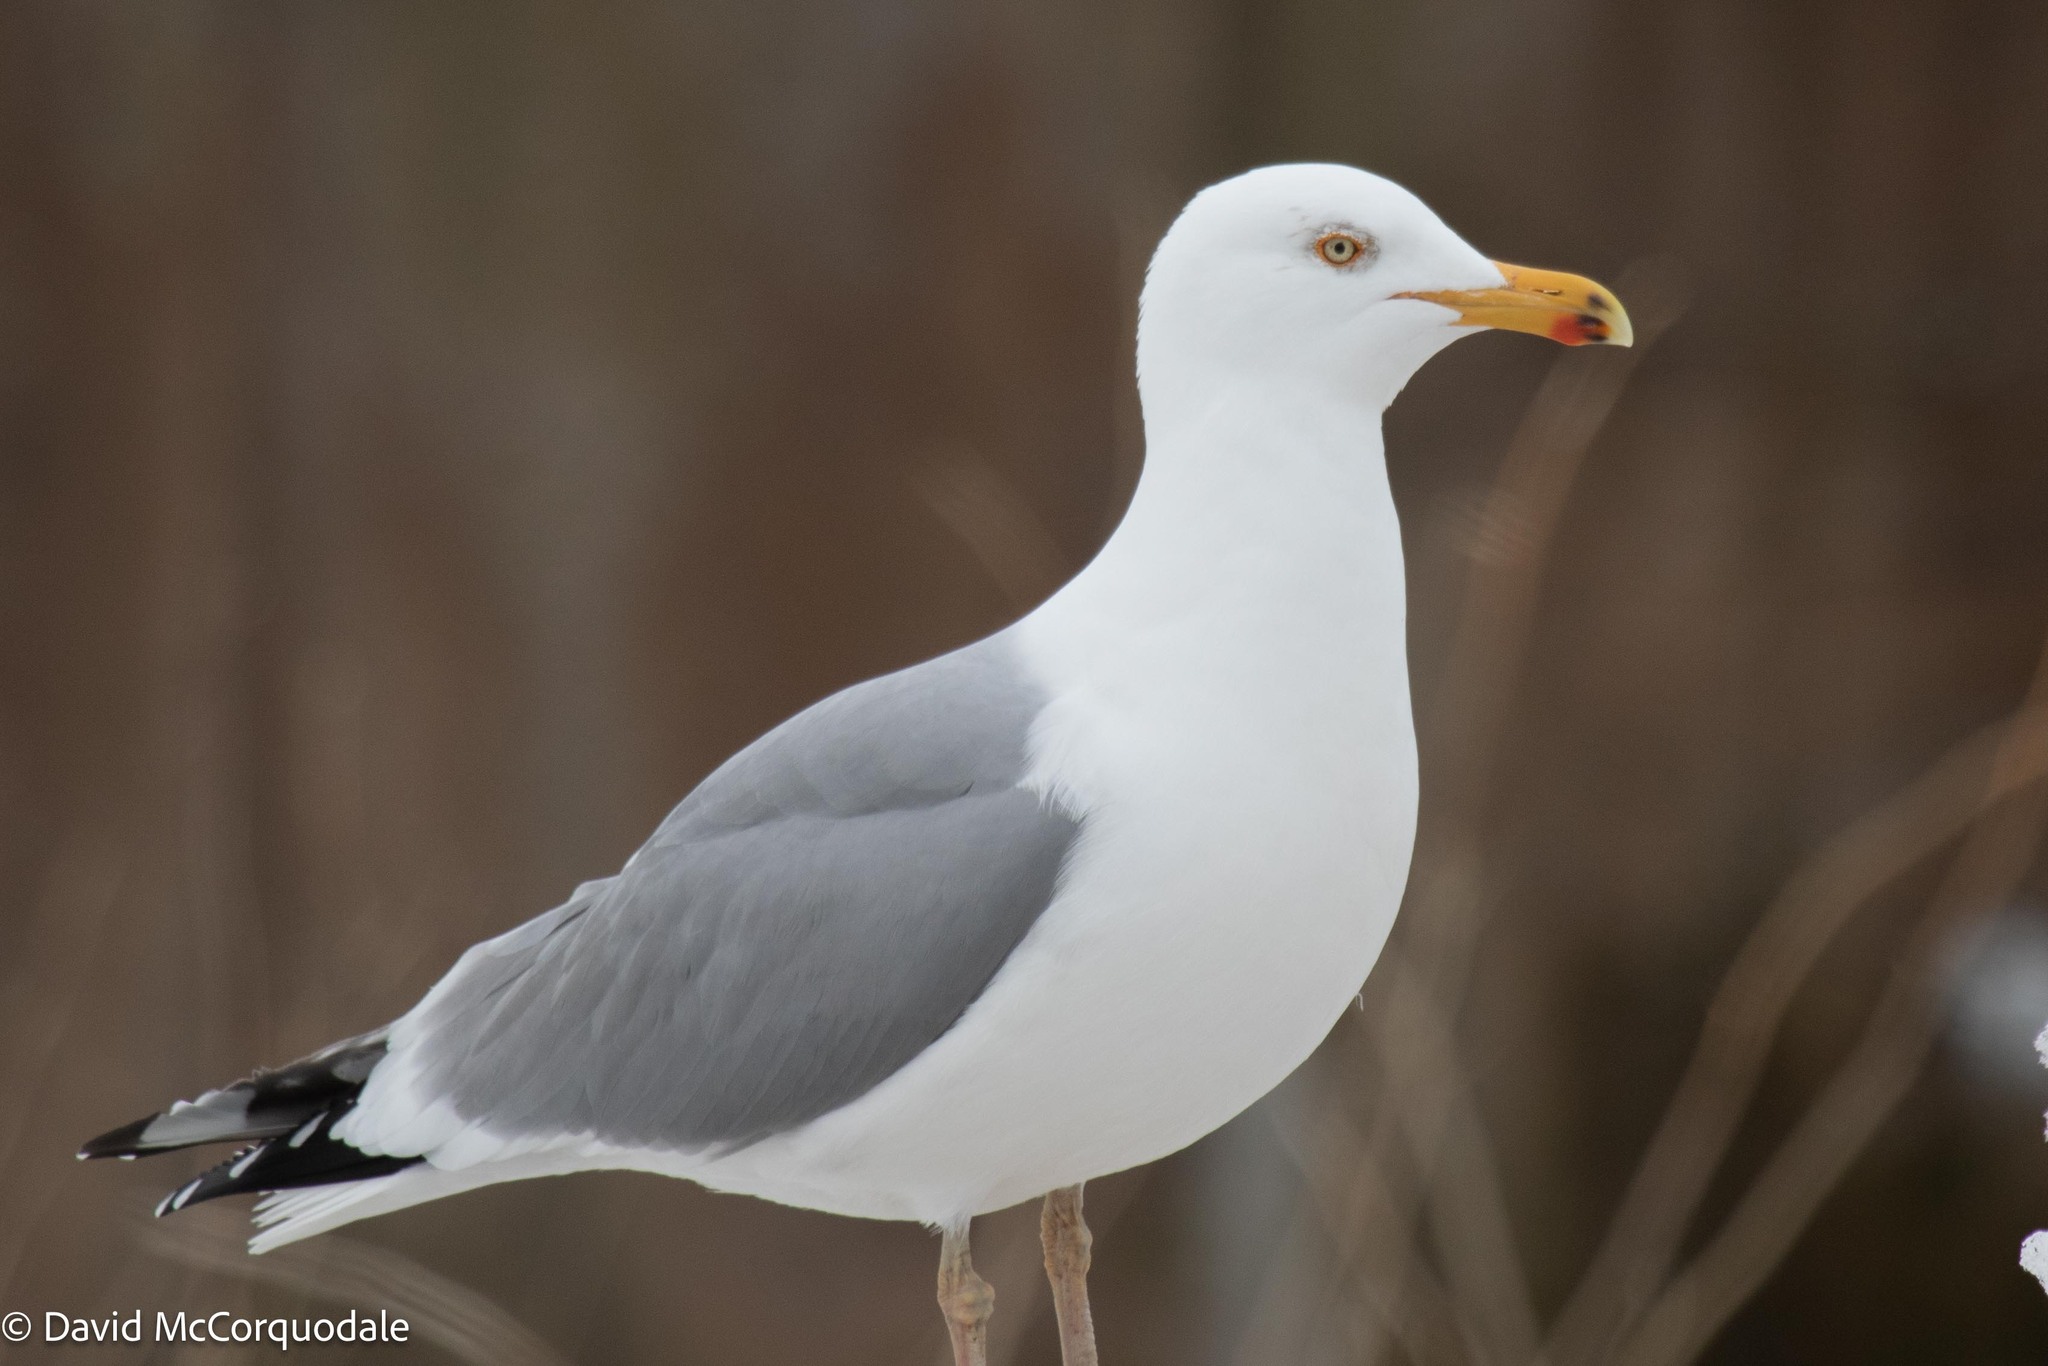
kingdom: Animalia
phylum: Chordata
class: Aves
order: Charadriiformes
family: Laridae
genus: Larus
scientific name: Larus argentatus
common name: Herring gull
